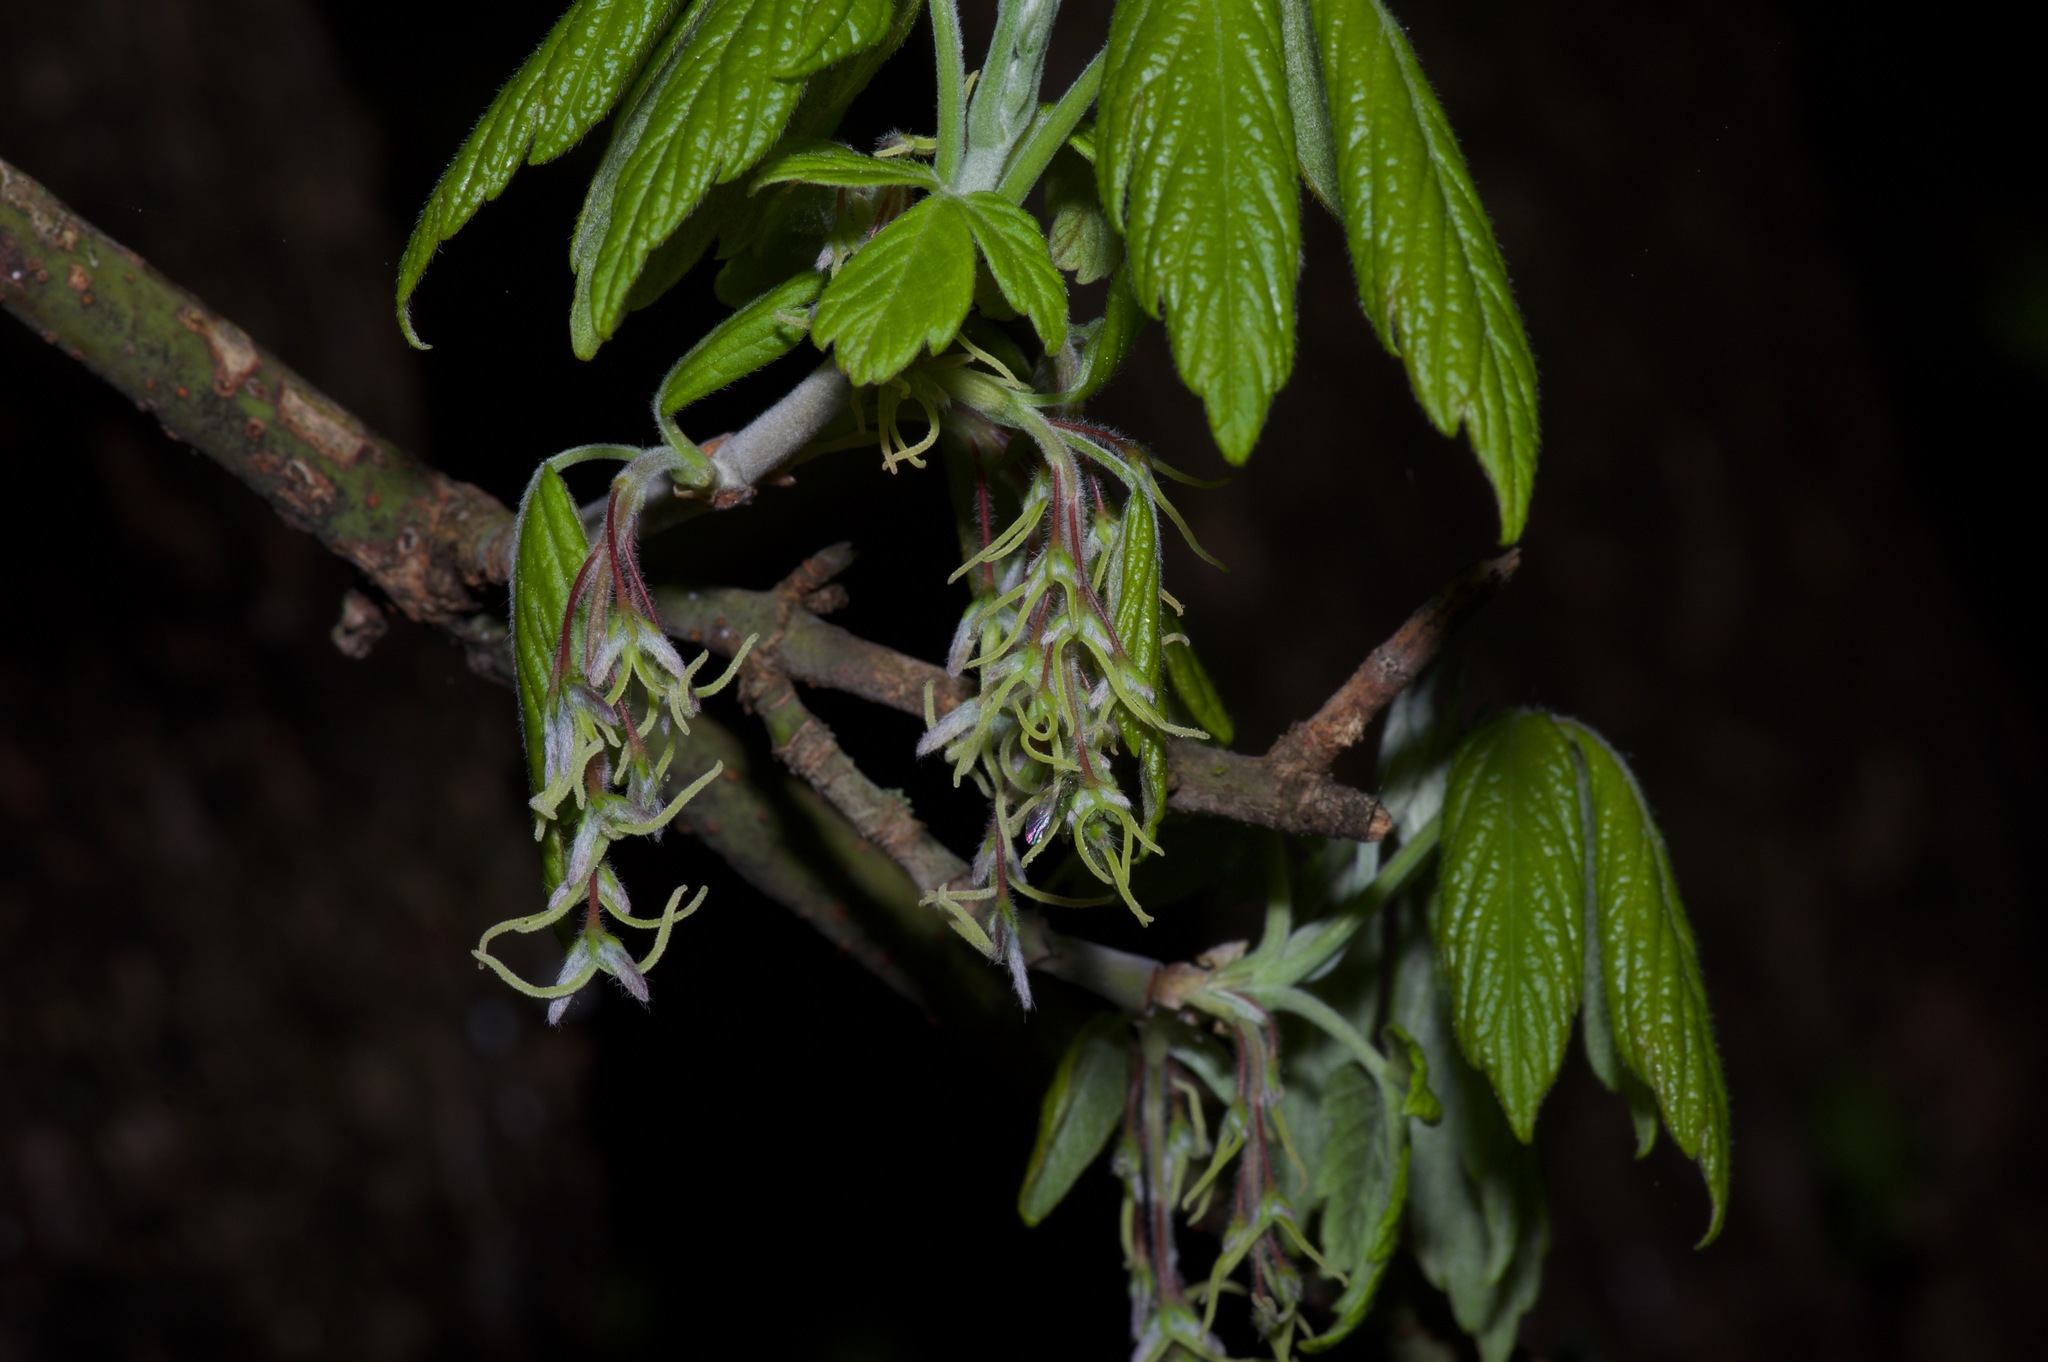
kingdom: Plantae
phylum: Tracheophyta
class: Magnoliopsida
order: Sapindales
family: Sapindaceae
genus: Acer
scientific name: Acer negundo
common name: Ashleaf maple
